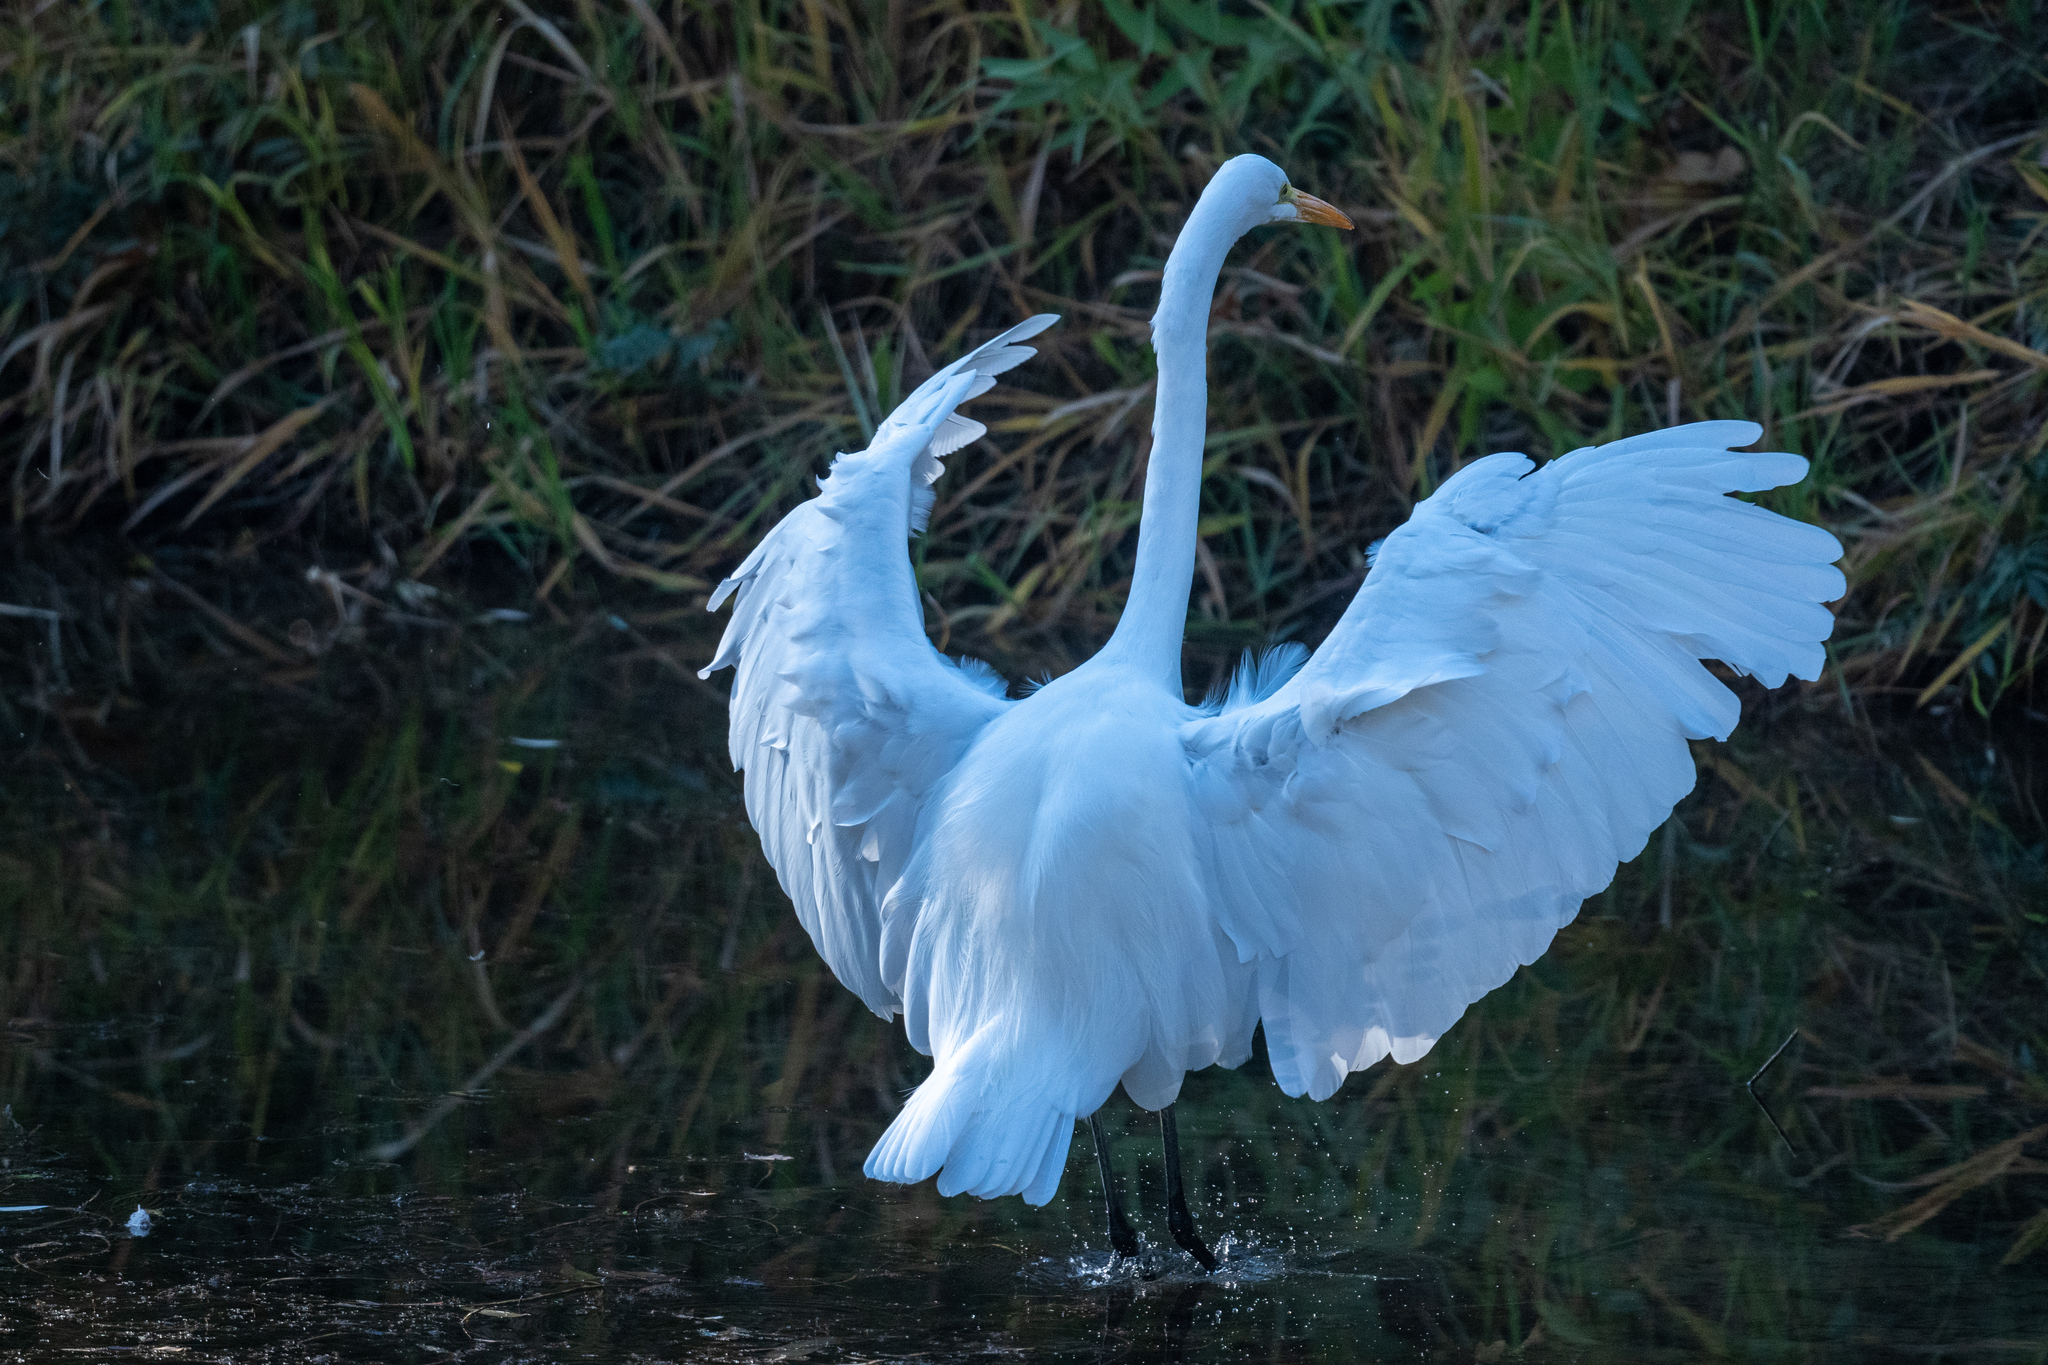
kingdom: Animalia
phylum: Chordata
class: Aves
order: Pelecaniformes
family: Ardeidae
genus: Ardea
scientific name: Ardea alba
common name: Great egret
